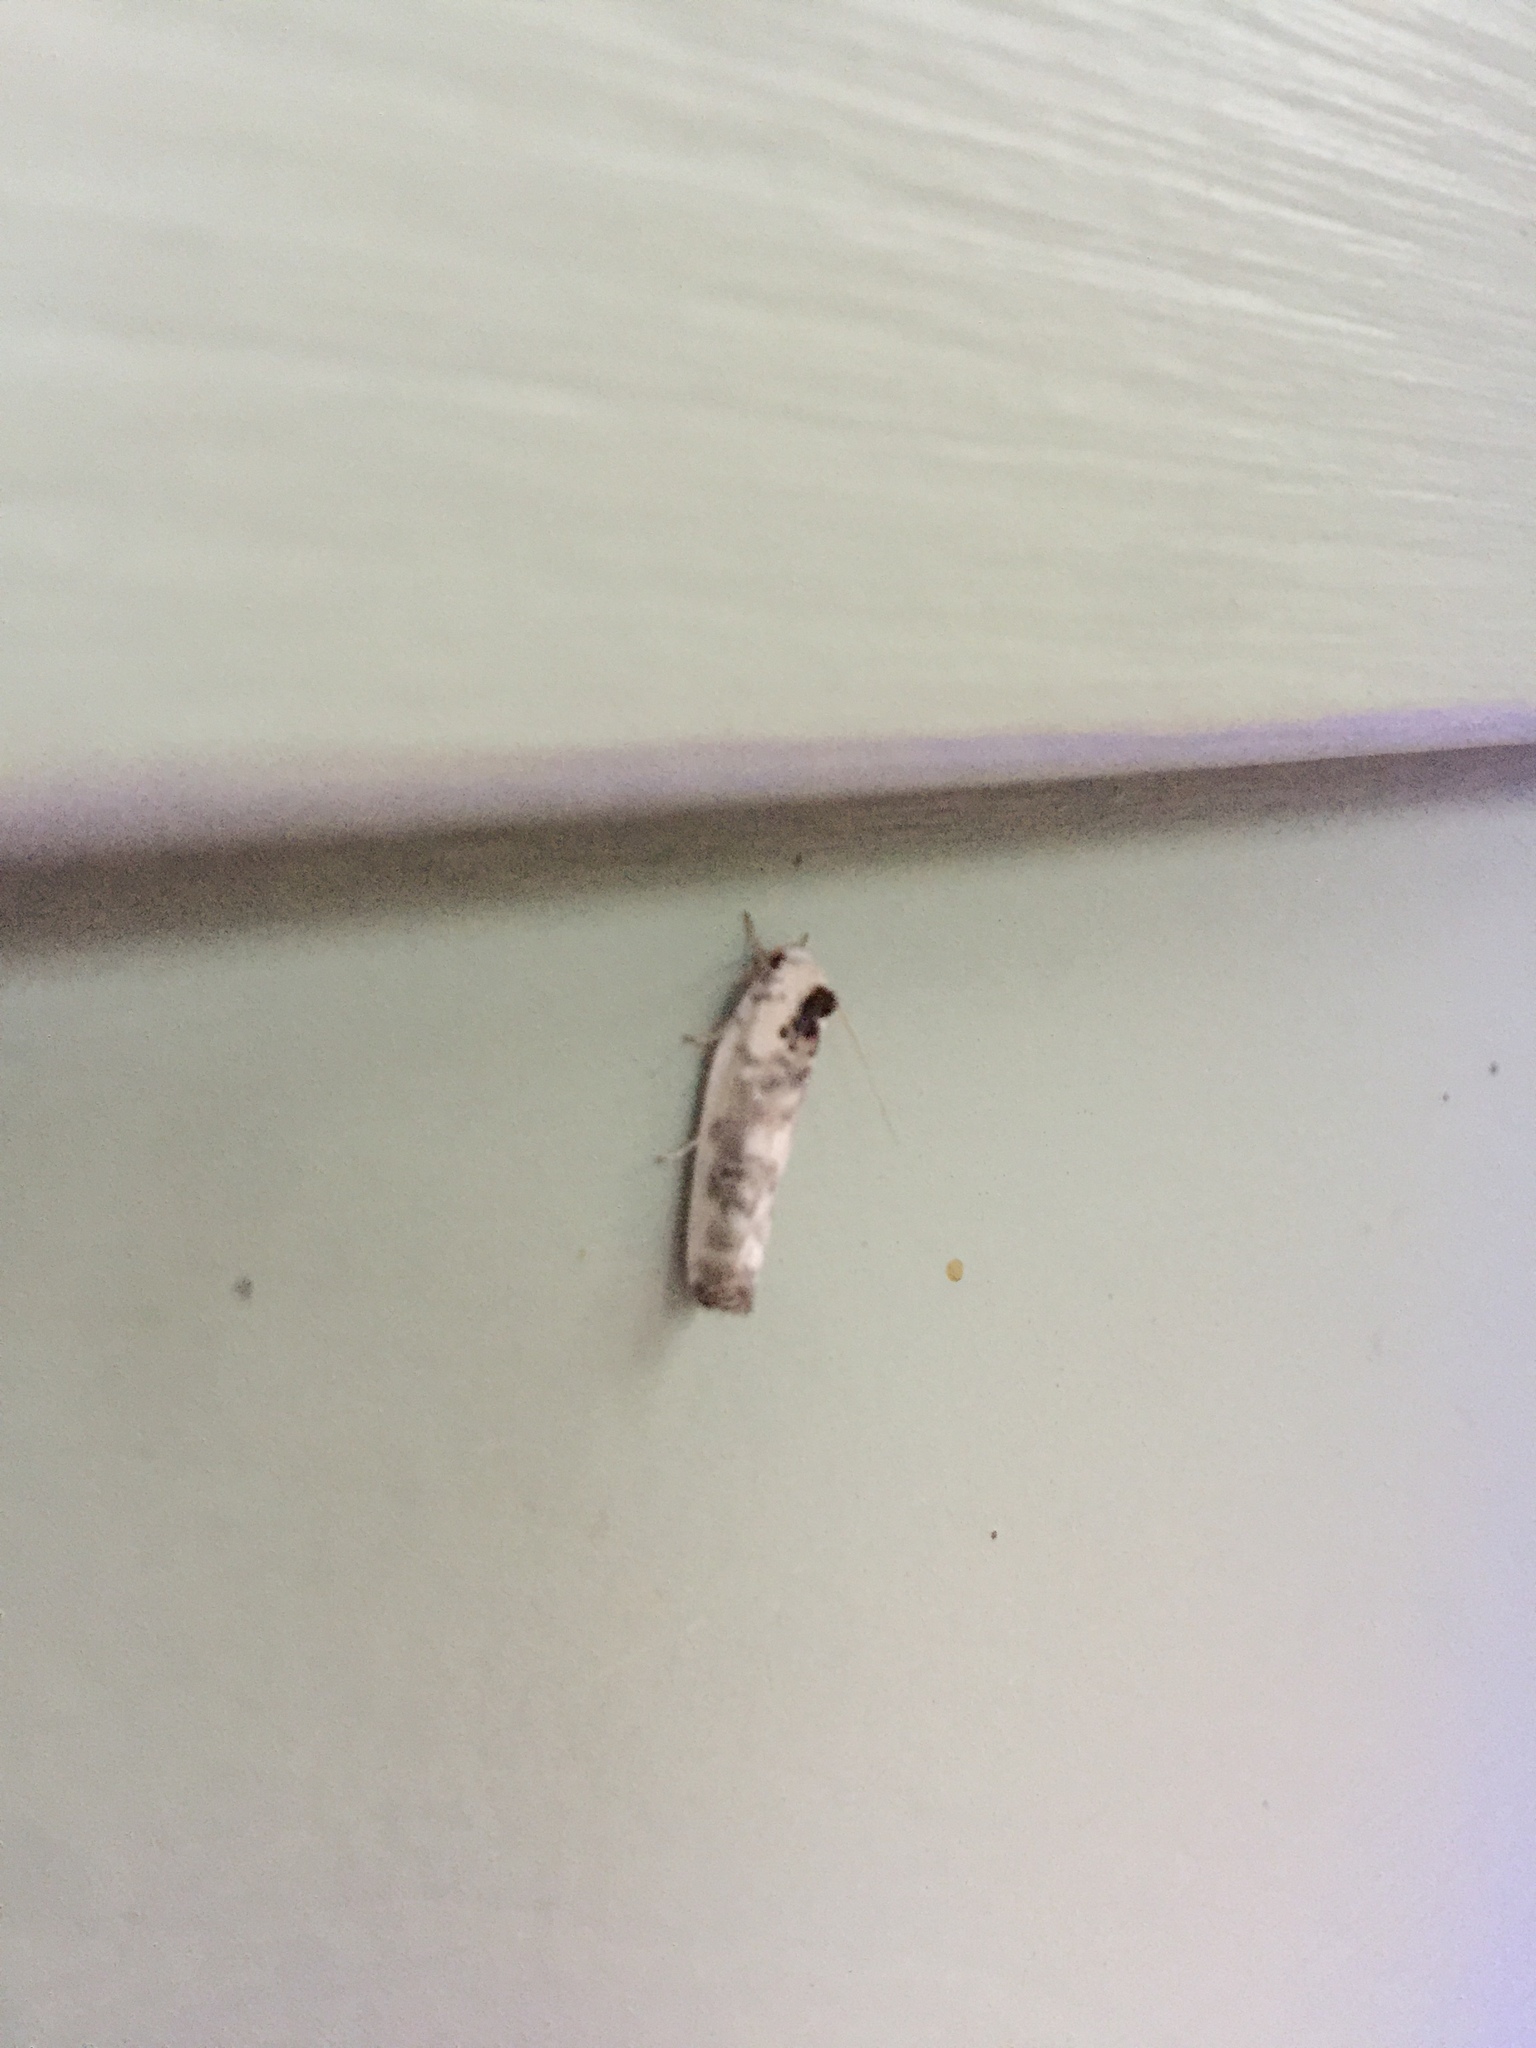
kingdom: Animalia
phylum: Arthropoda
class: Insecta
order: Lepidoptera
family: Depressariidae
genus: Antaeotricha
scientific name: Antaeotricha schlaegeri
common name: Schlaeger's fruitworm moth
